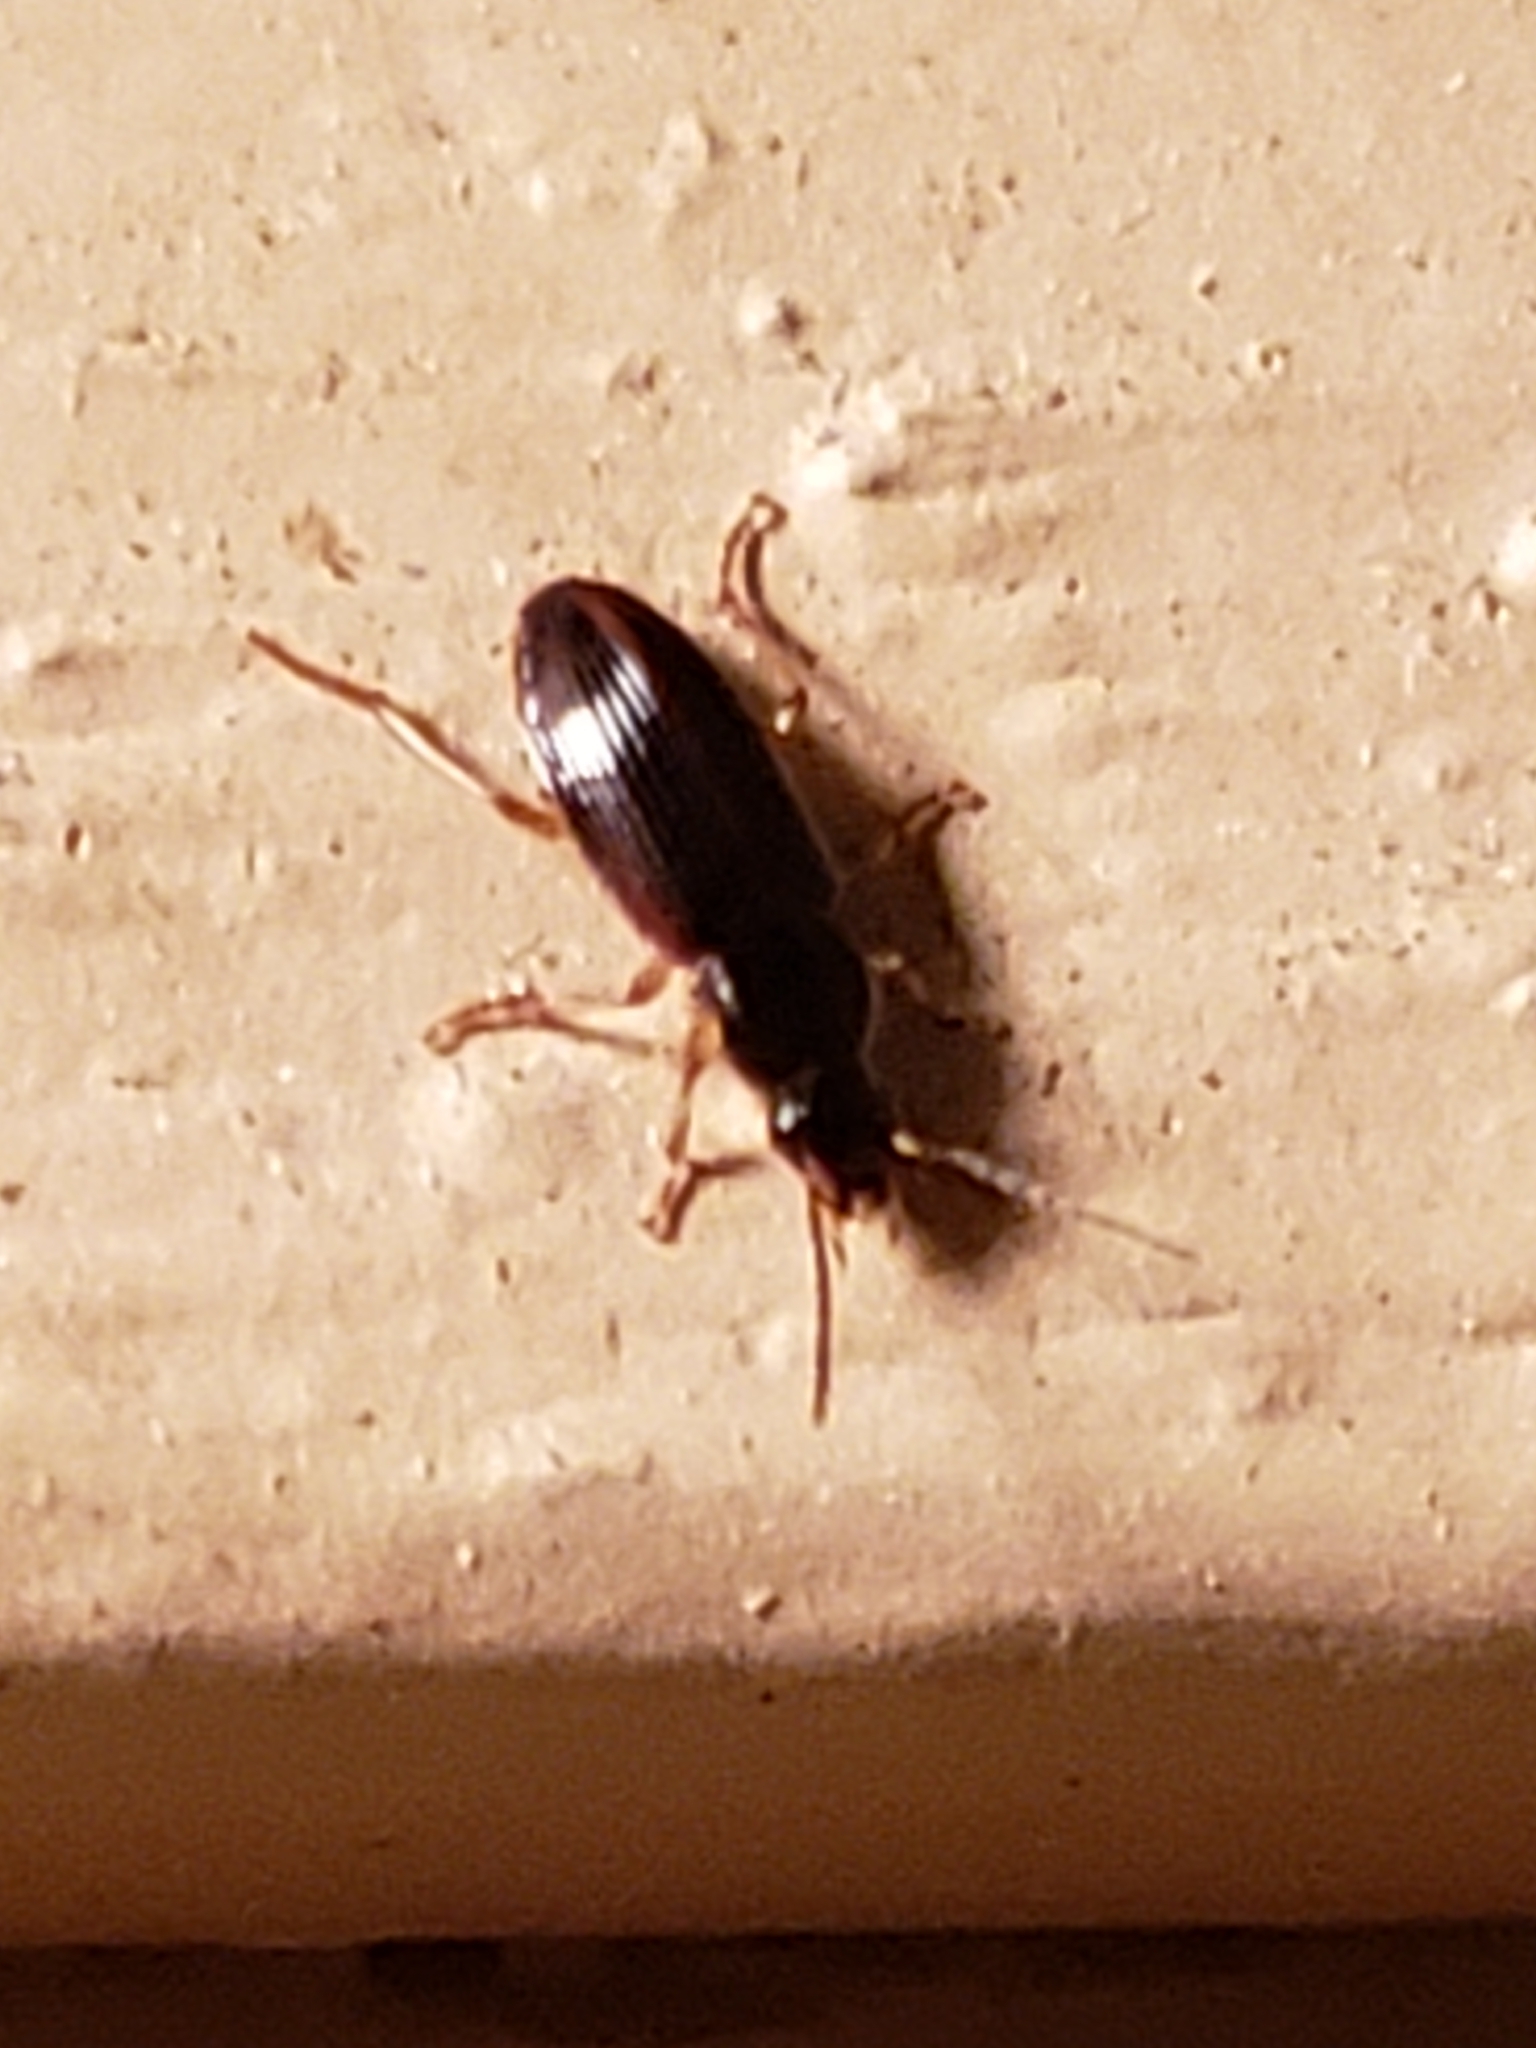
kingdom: Animalia
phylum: Arthropoda
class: Insecta
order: Coleoptera
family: Carabidae
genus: Stenolophus
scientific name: Stenolophus ochropezus
